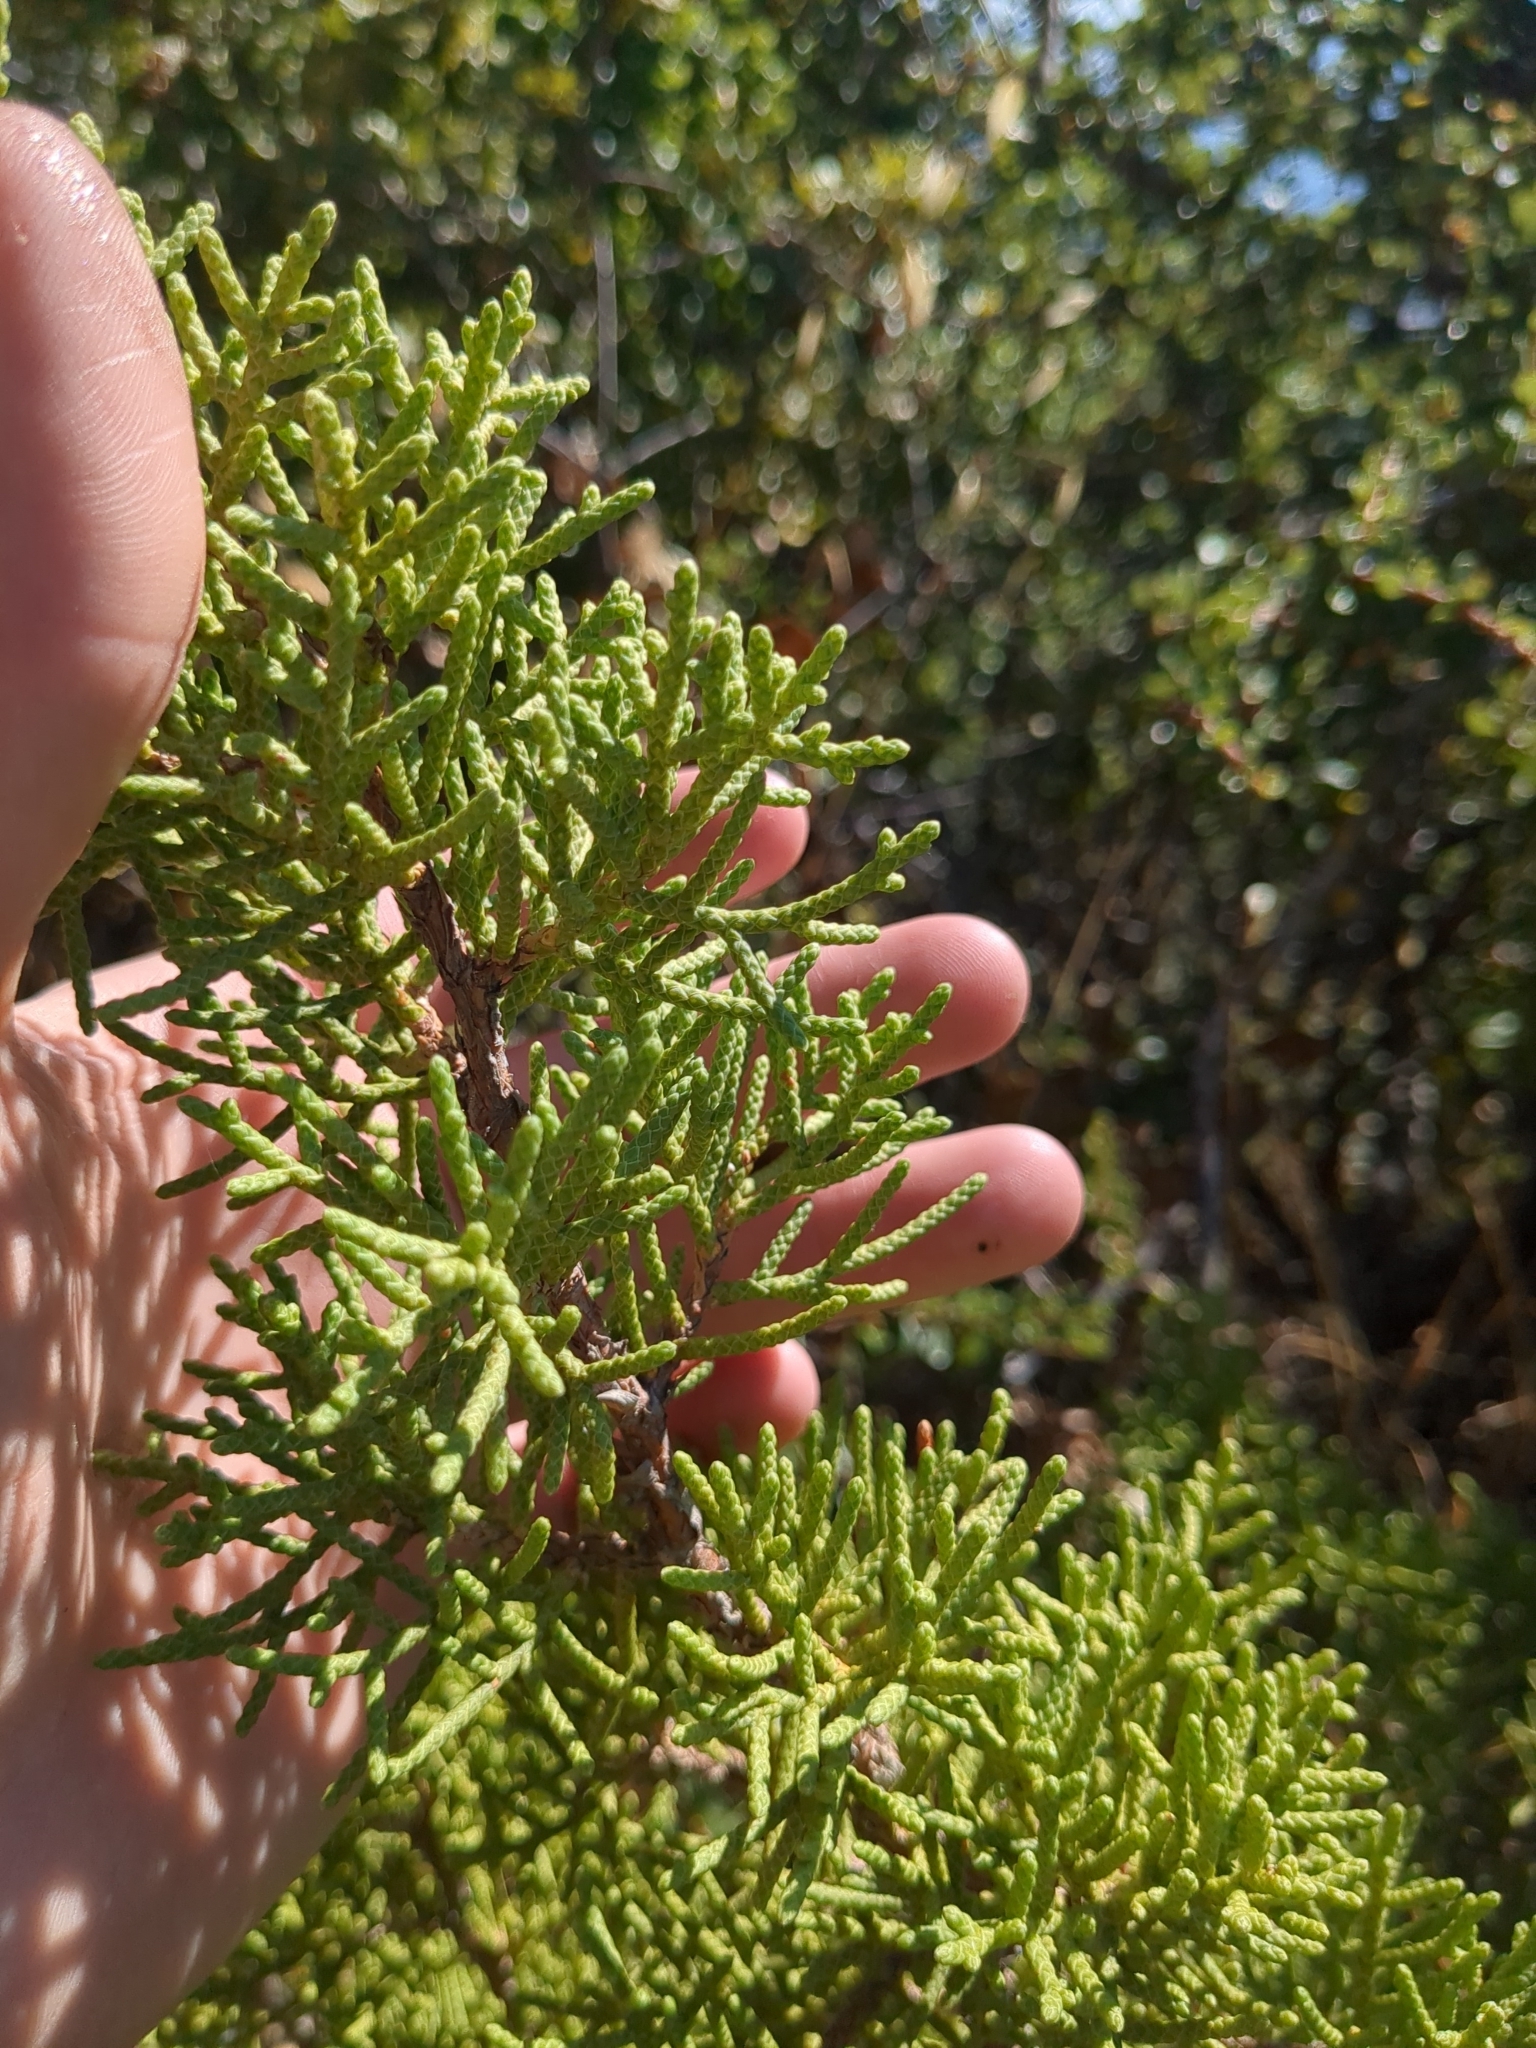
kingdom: Plantae
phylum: Tracheophyta
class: Pinopsida
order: Pinales
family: Cupressaceae
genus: Juniperus
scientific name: Juniperus californica
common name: California juniper
